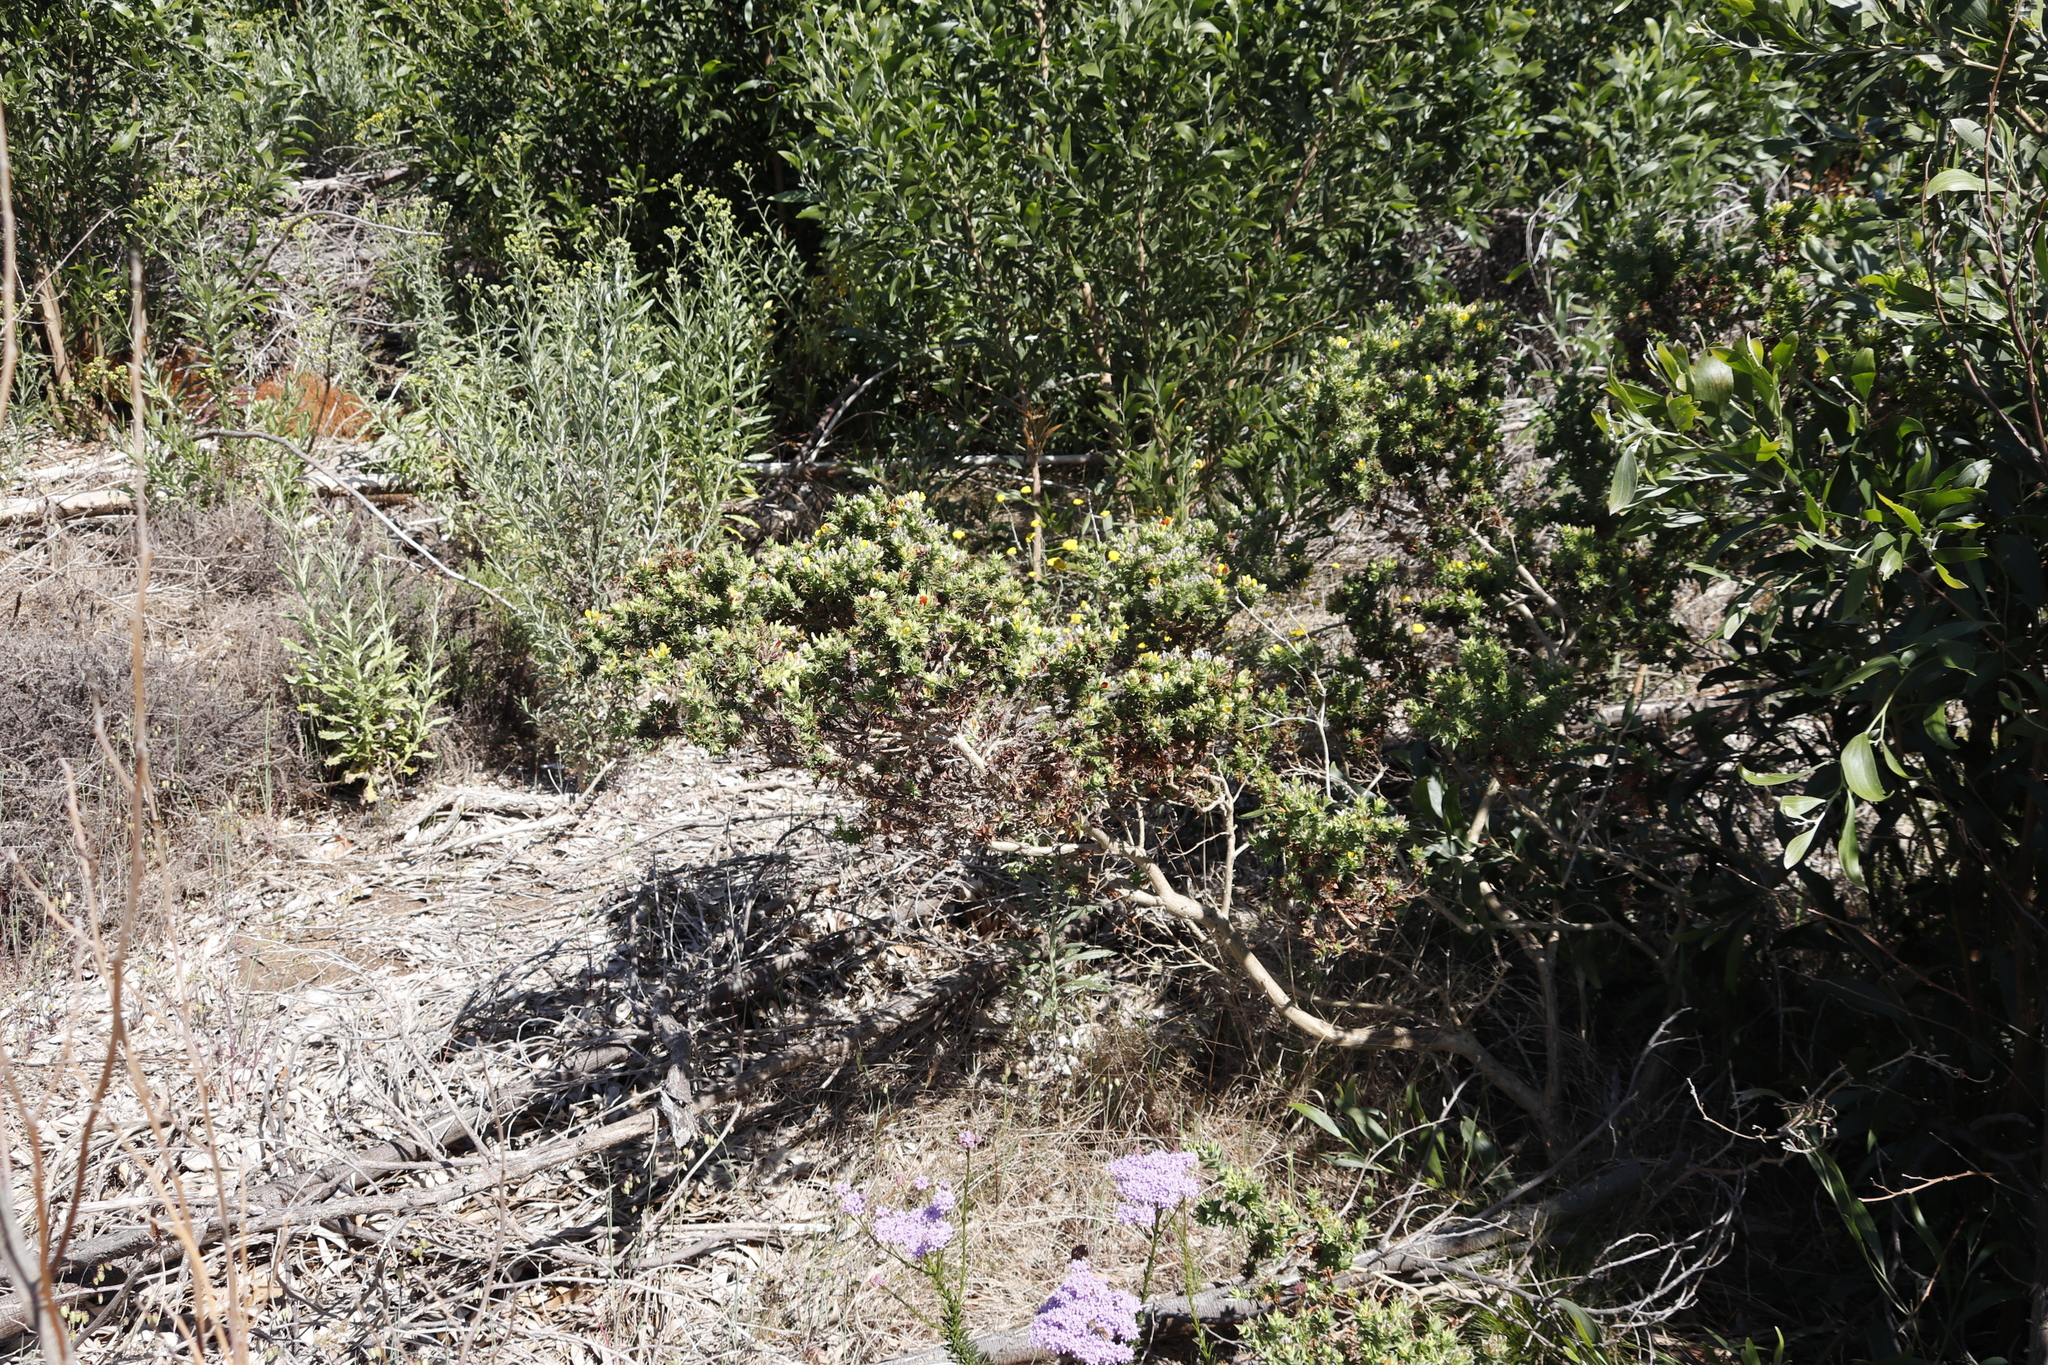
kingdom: Plantae
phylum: Tracheophyta
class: Magnoliopsida
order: Fabales
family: Fabaceae
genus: Aspalathus
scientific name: Aspalathus cordata
